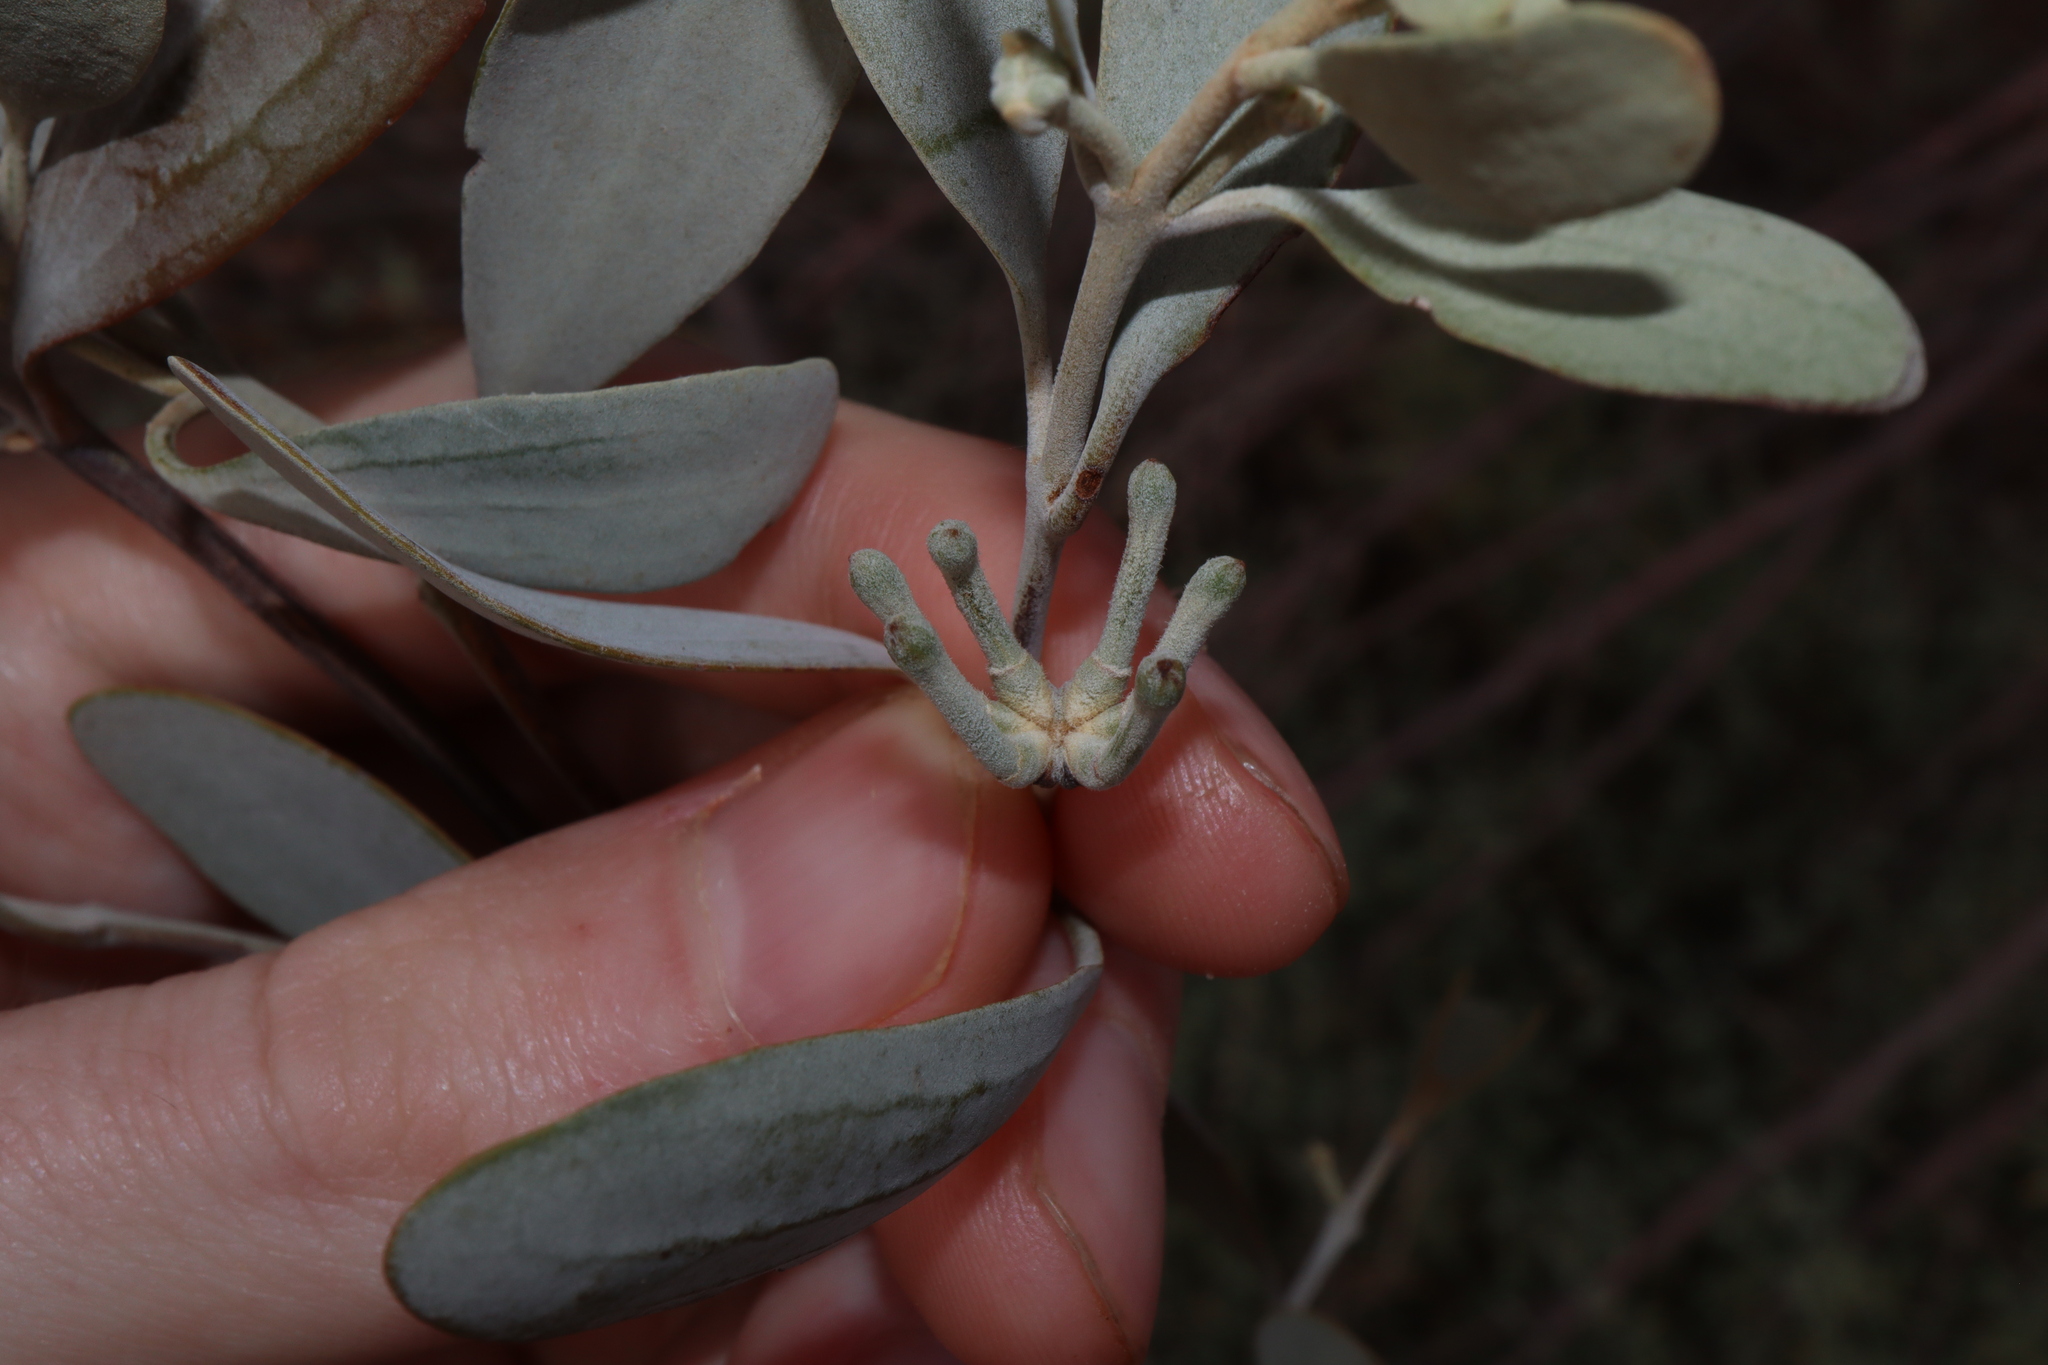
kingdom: Plantae
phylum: Tracheophyta
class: Magnoliopsida
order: Santalales
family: Loranthaceae
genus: Amyema
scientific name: Amyema maidenii
